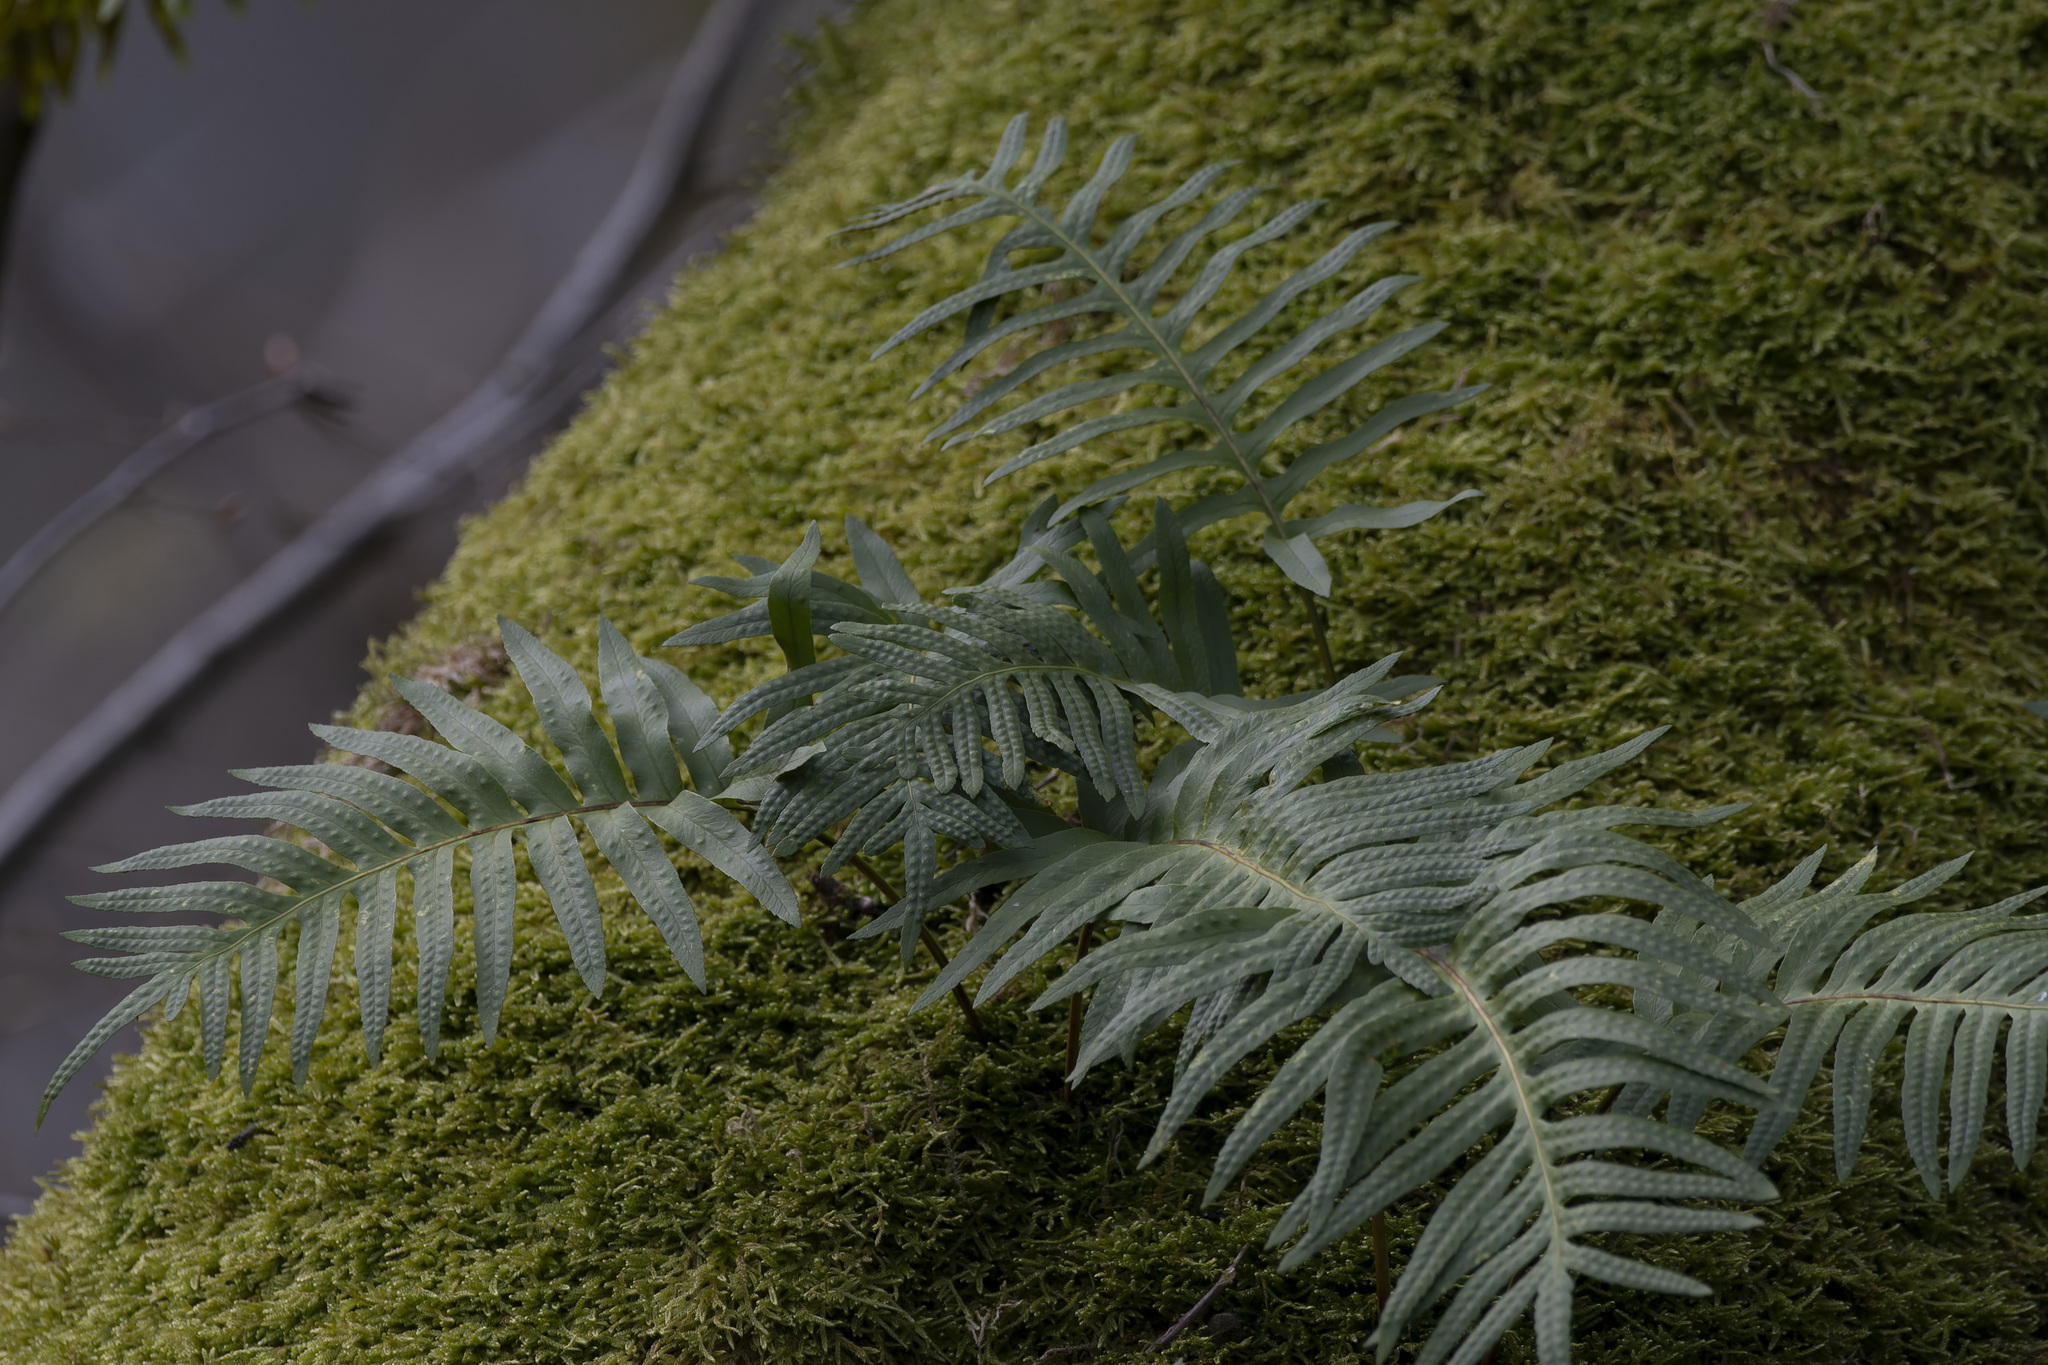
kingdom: Plantae
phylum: Tracheophyta
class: Polypodiopsida
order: Polypodiales
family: Polypodiaceae
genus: Polypodium
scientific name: Polypodium cambricum
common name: Southern polypody
